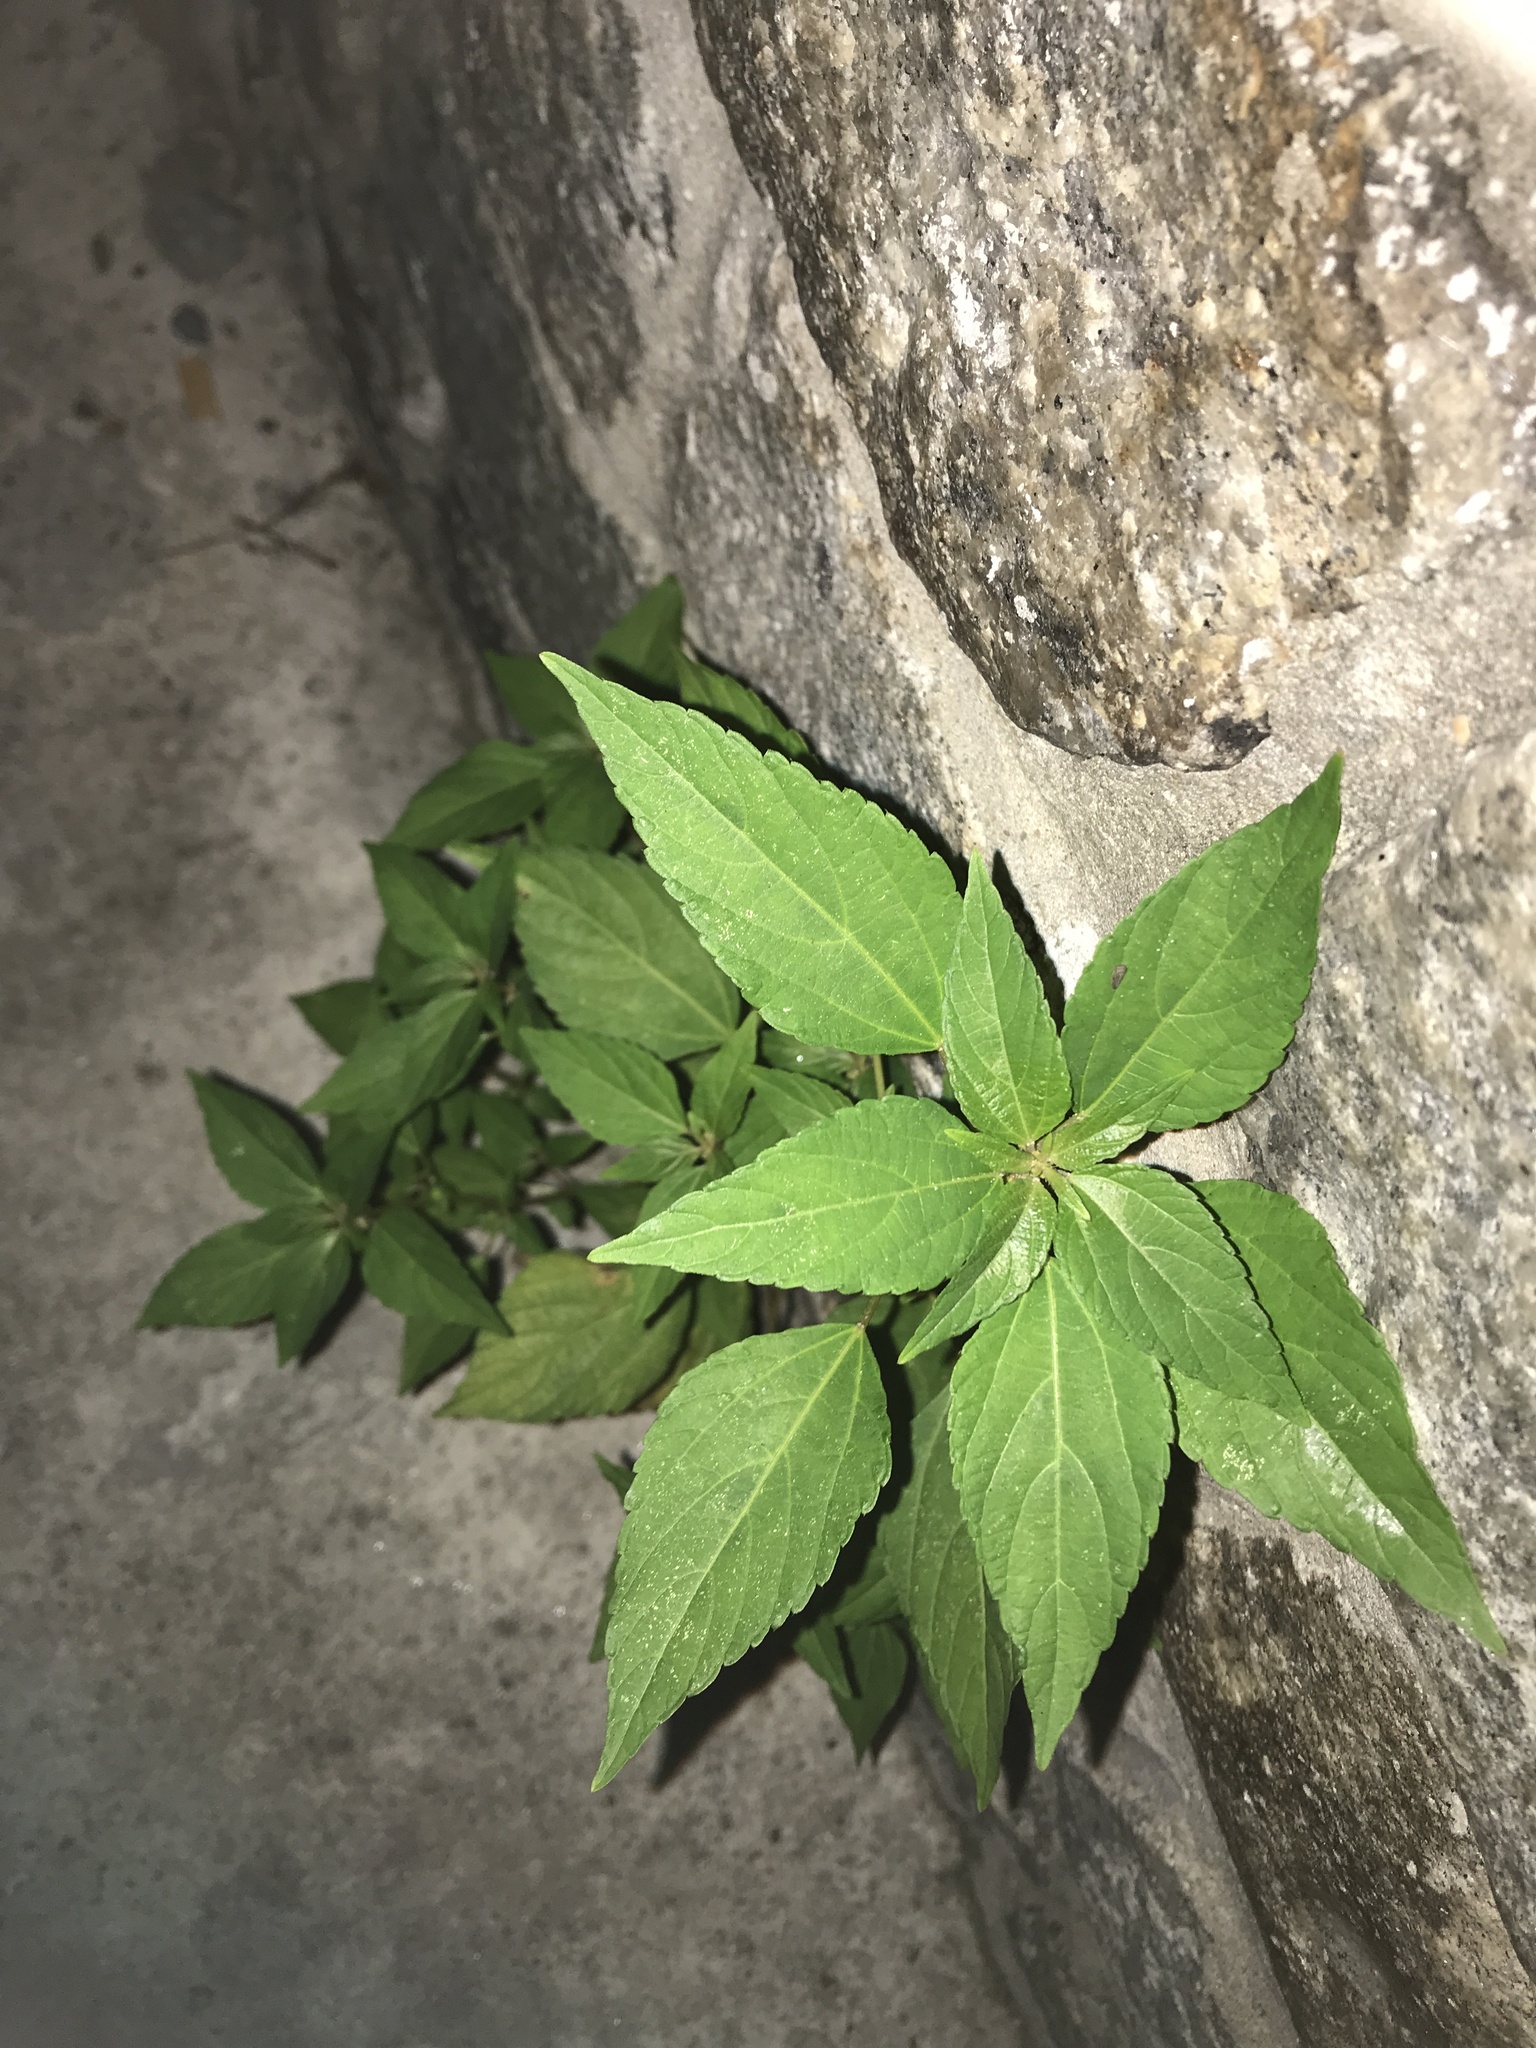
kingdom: Plantae
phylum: Tracheophyta
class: Magnoliopsida
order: Malpighiales
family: Euphorbiaceae
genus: Acalypha
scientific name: Acalypha rhomboidea
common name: Rhombic copperleaf
